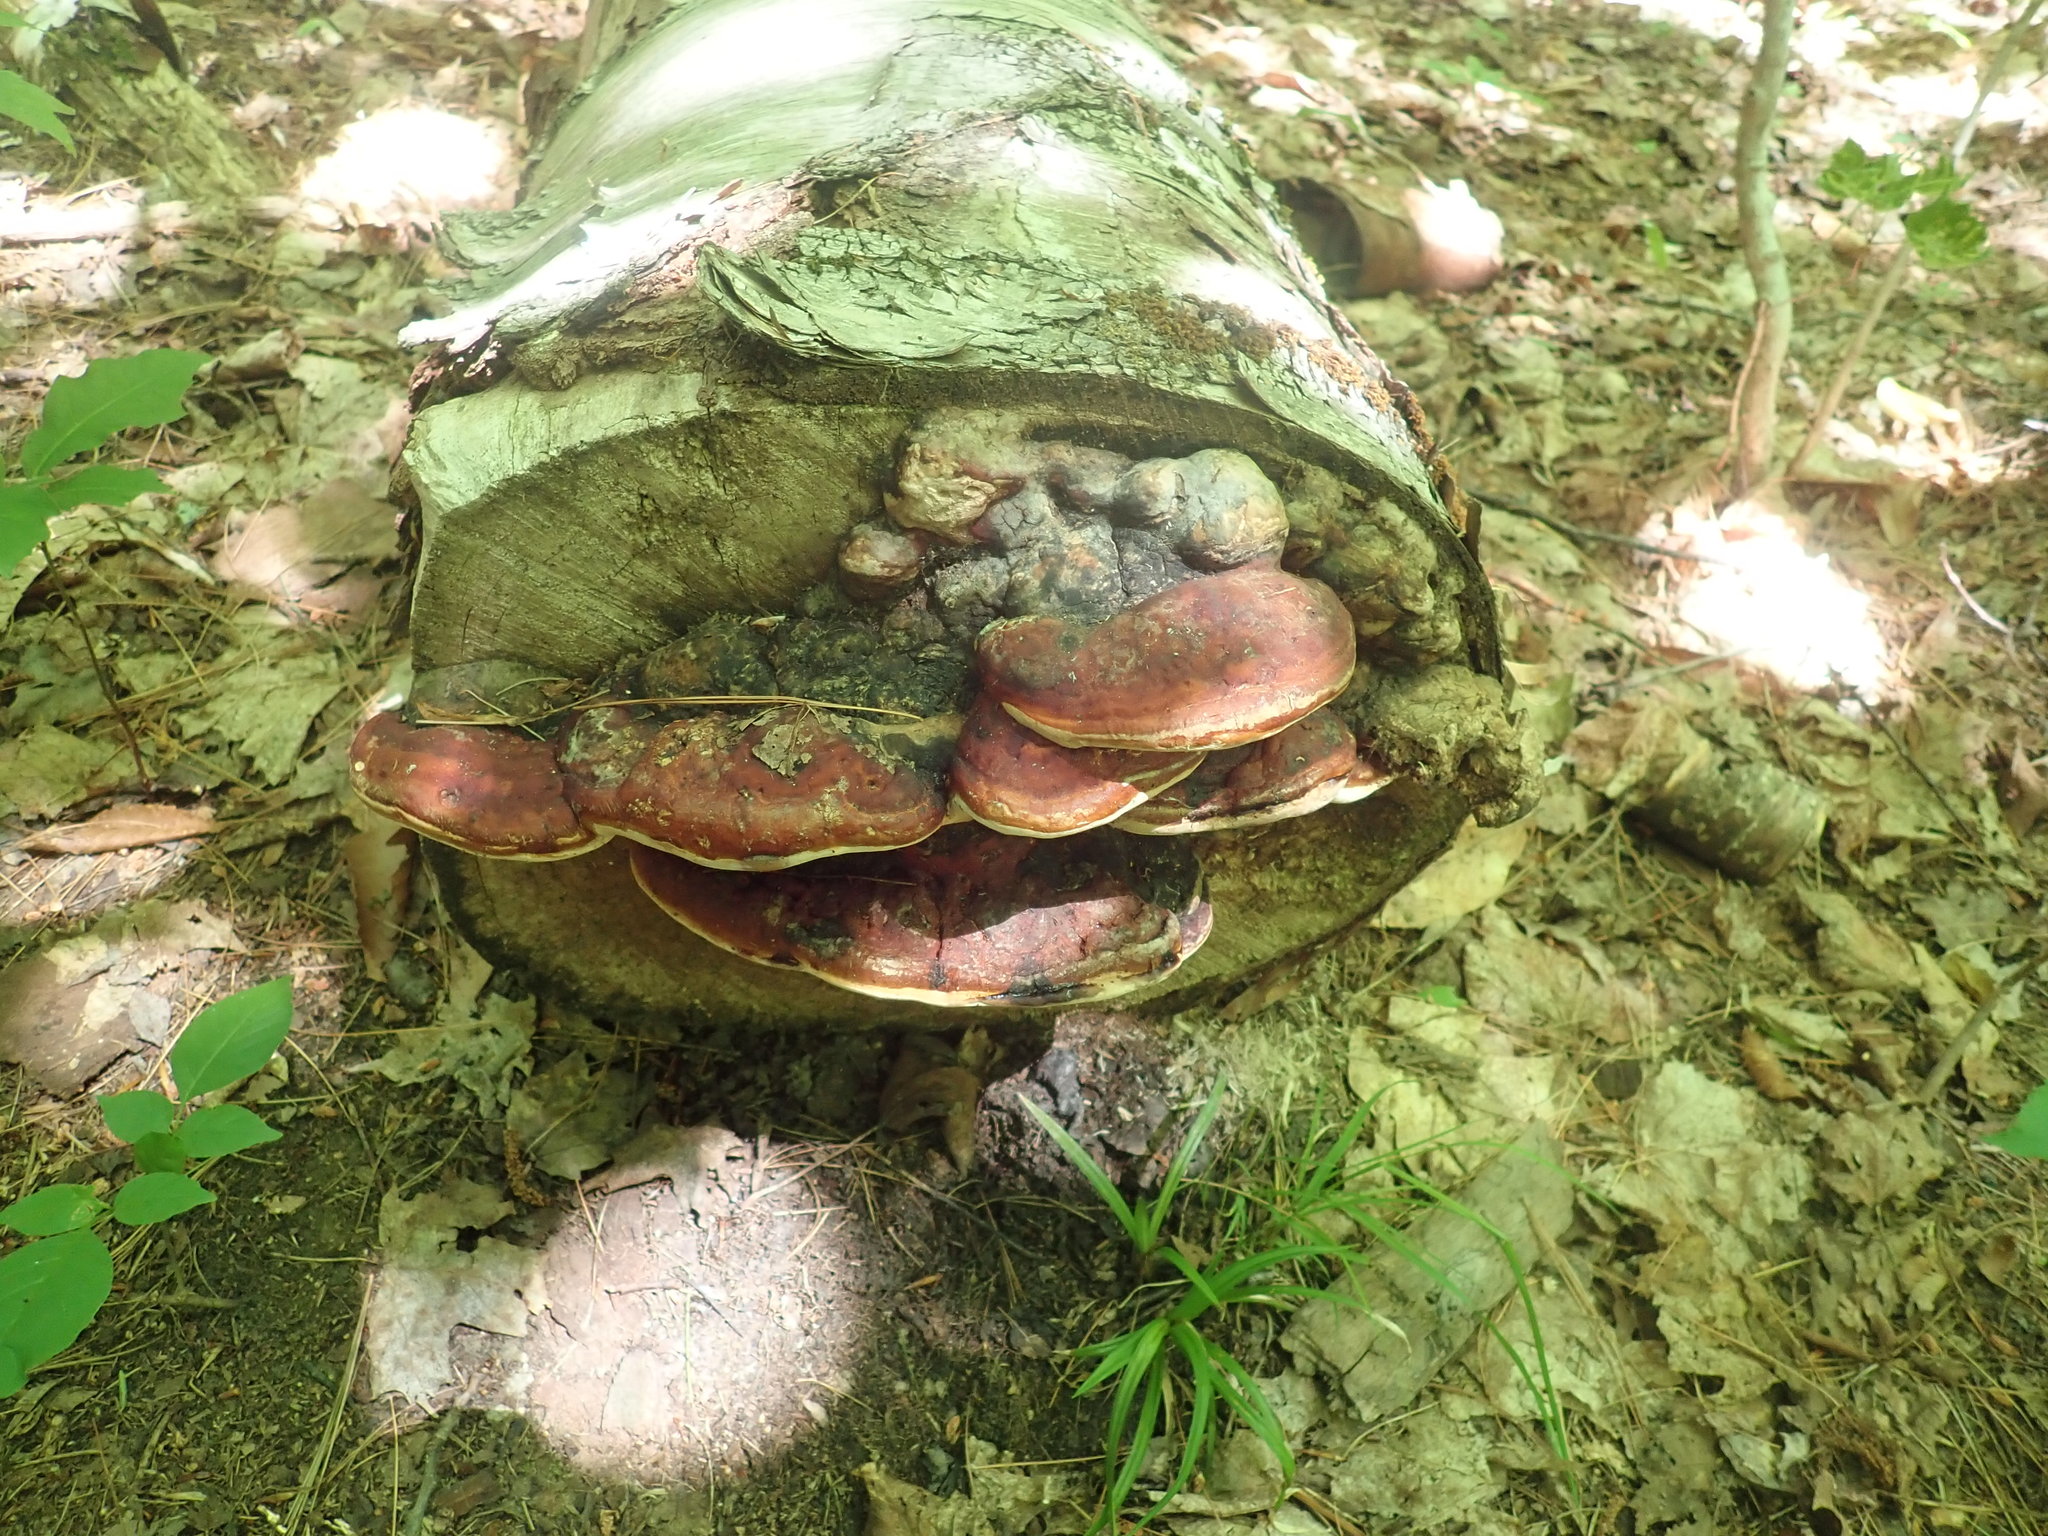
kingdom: Fungi
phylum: Basidiomycota
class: Agaricomycetes
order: Polyporales
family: Fomitopsidaceae
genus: Fomitopsis
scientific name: Fomitopsis mounceae
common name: Northern red belt
